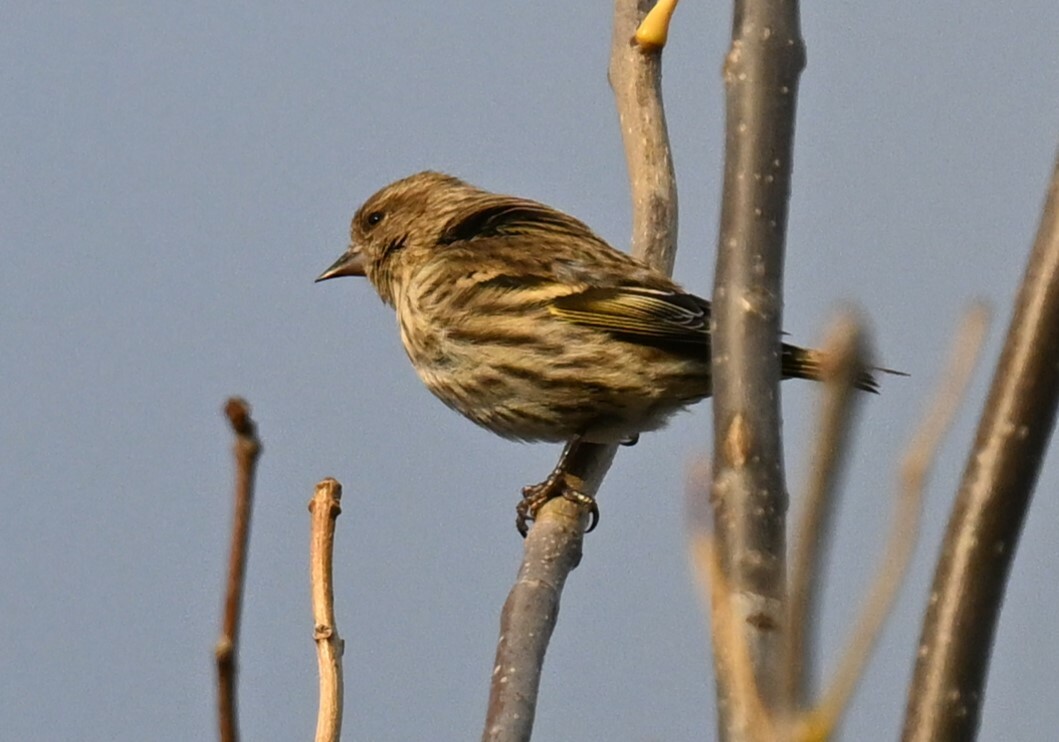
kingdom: Animalia
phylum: Chordata
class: Aves
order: Passeriformes
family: Fringillidae
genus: Spinus
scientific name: Spinus pinus
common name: Pine siskin
